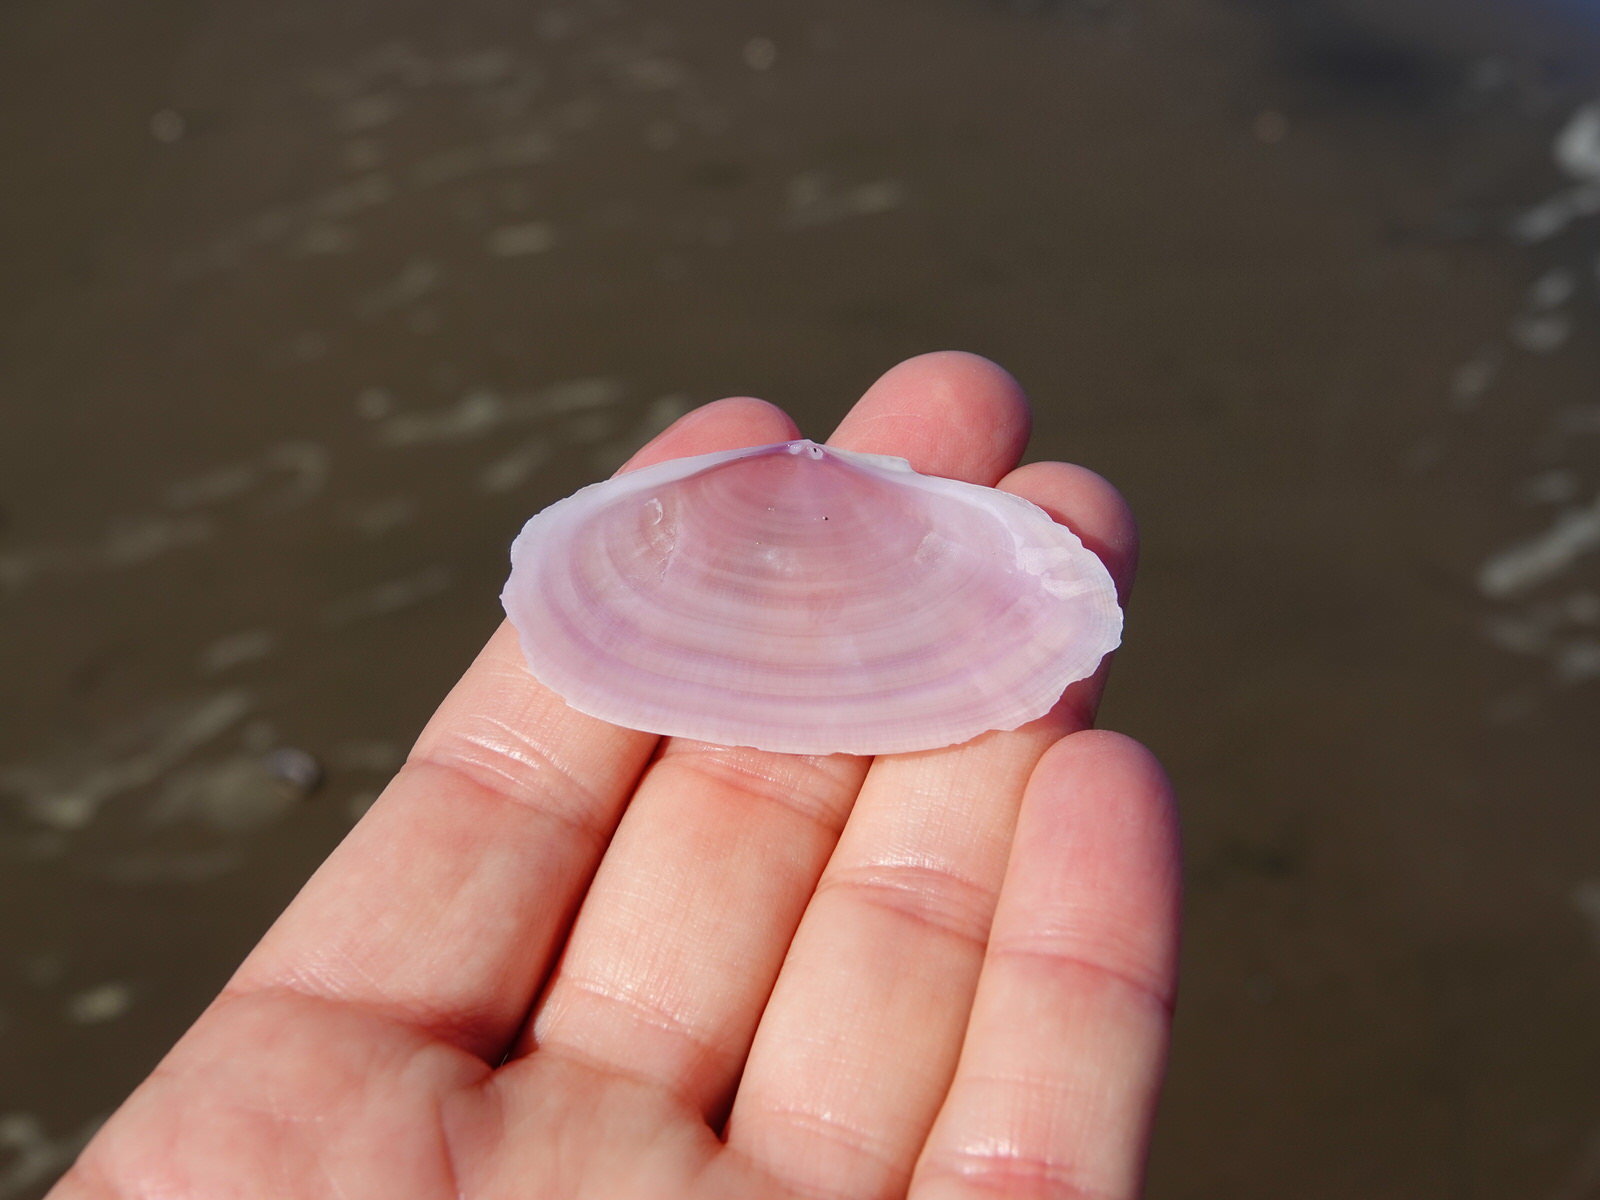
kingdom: Animalia
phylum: Mollusca
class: Bivalvia
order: Cardiida
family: Psammobiidae
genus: Gari
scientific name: Gari lineolata
